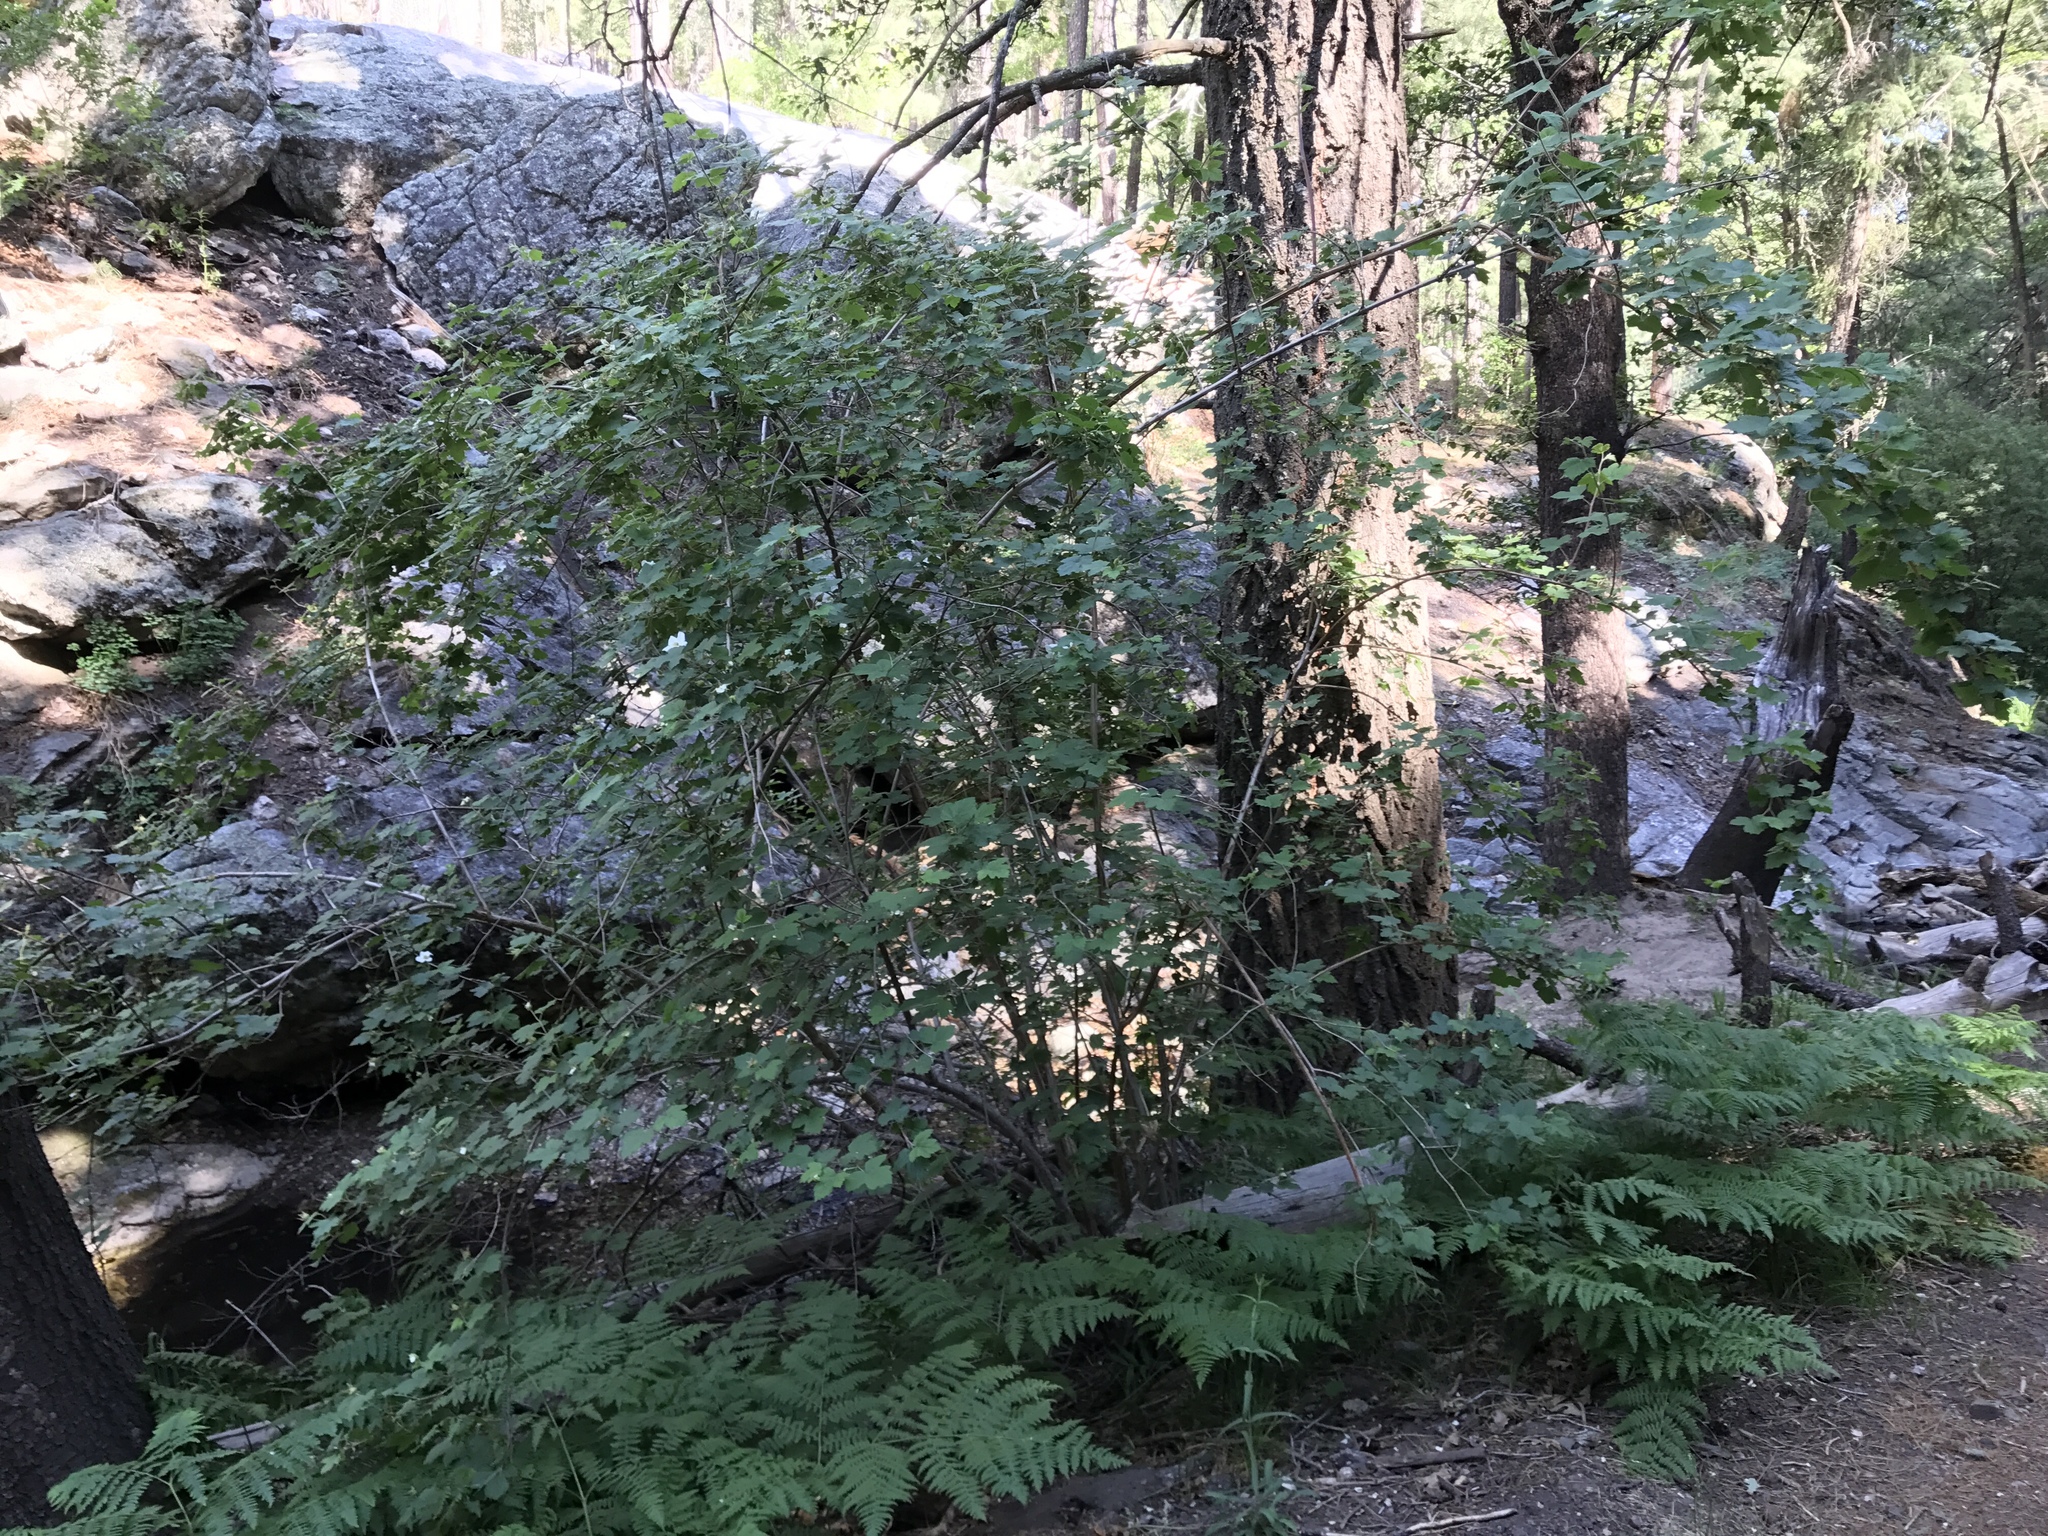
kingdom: Plantae
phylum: Tracheophyta
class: Magnoliopsida
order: Rosales
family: Rosaceae
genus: Rubus
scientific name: Rubus neomexicanus
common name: New mexico raspberry
